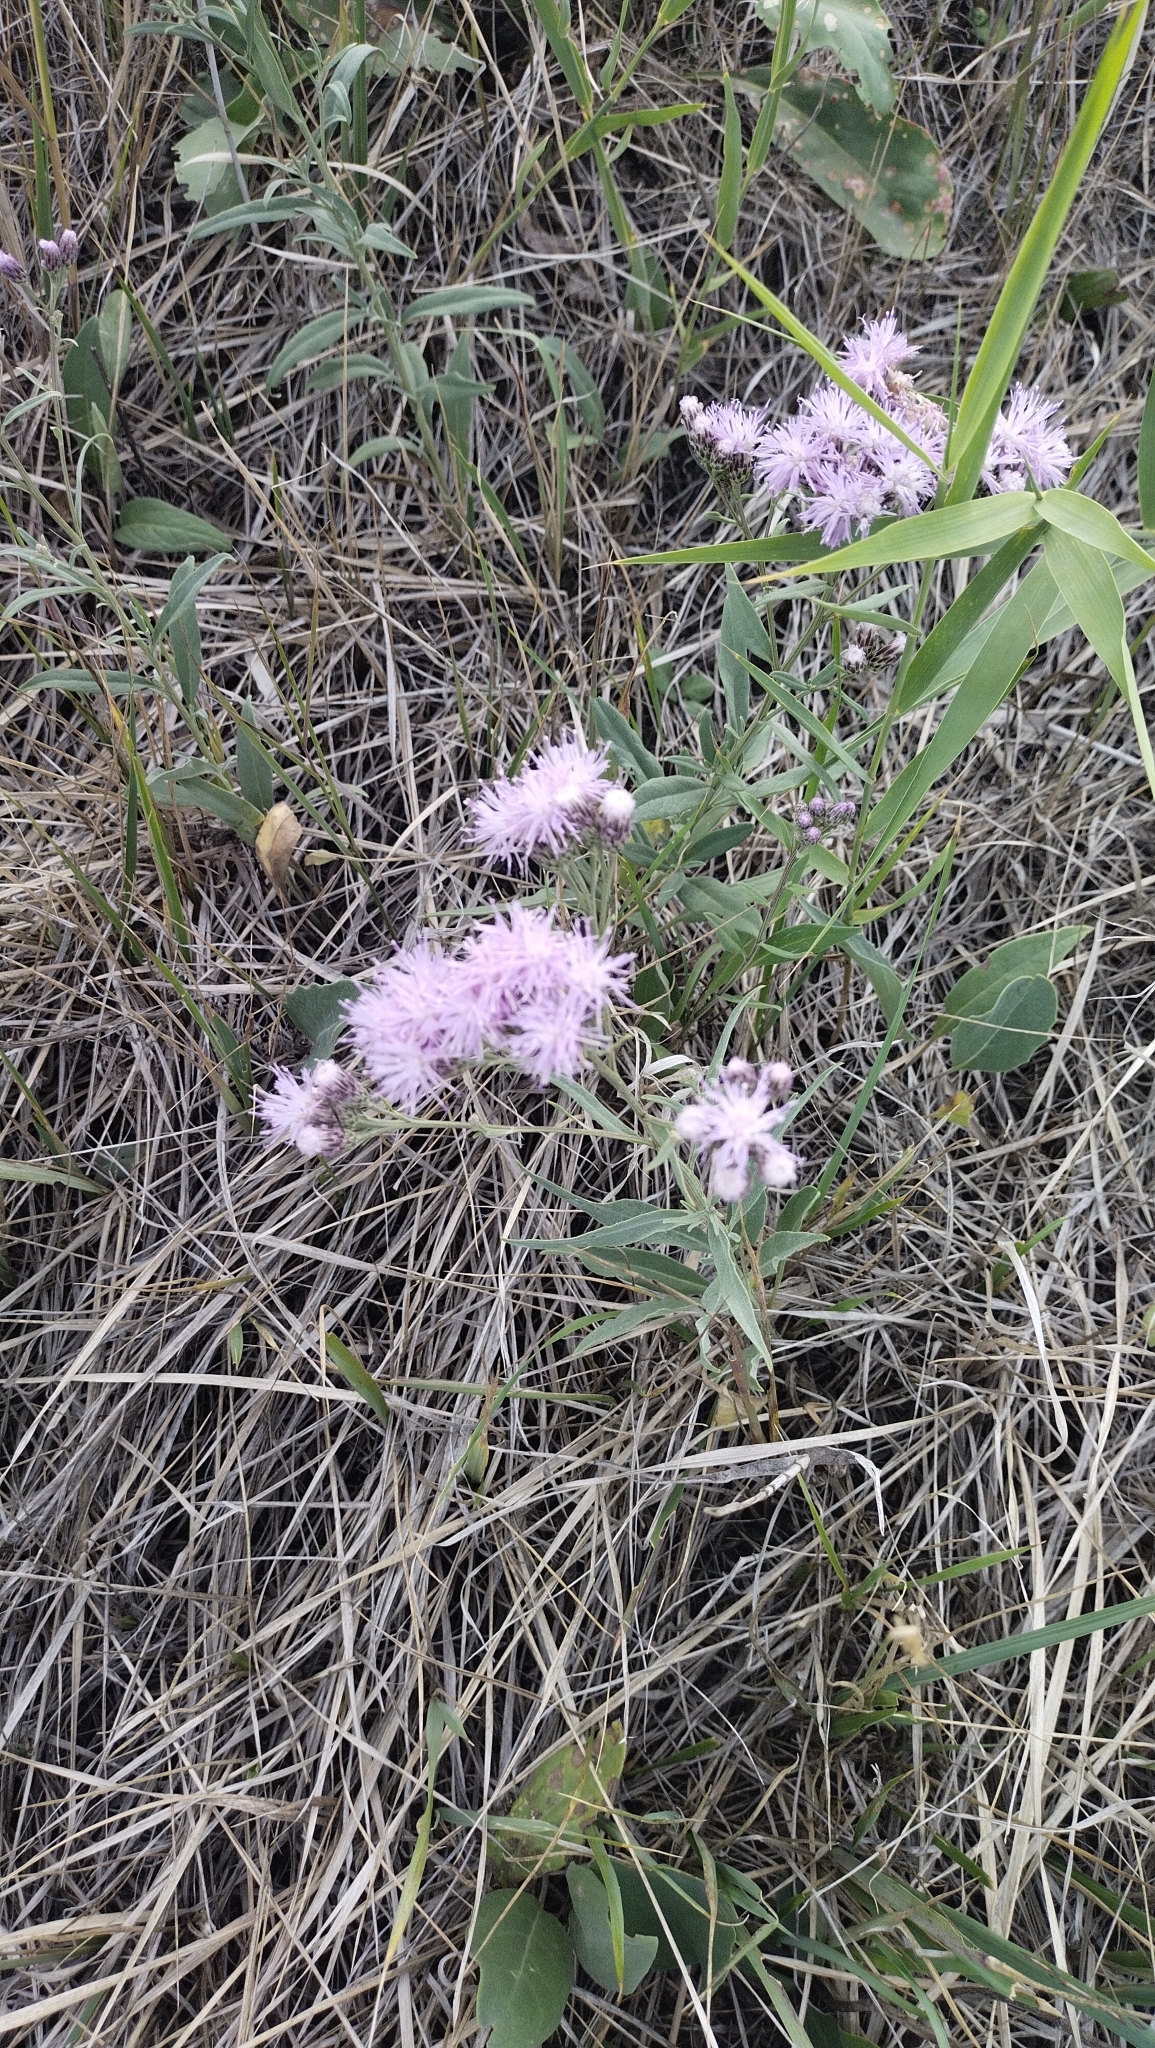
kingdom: Plantae
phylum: Tracheophyta
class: Magnoliopsida
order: Asterales
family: Asteraceae
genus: Saussurea
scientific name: Saussurea amara
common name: Alberta sawwort
